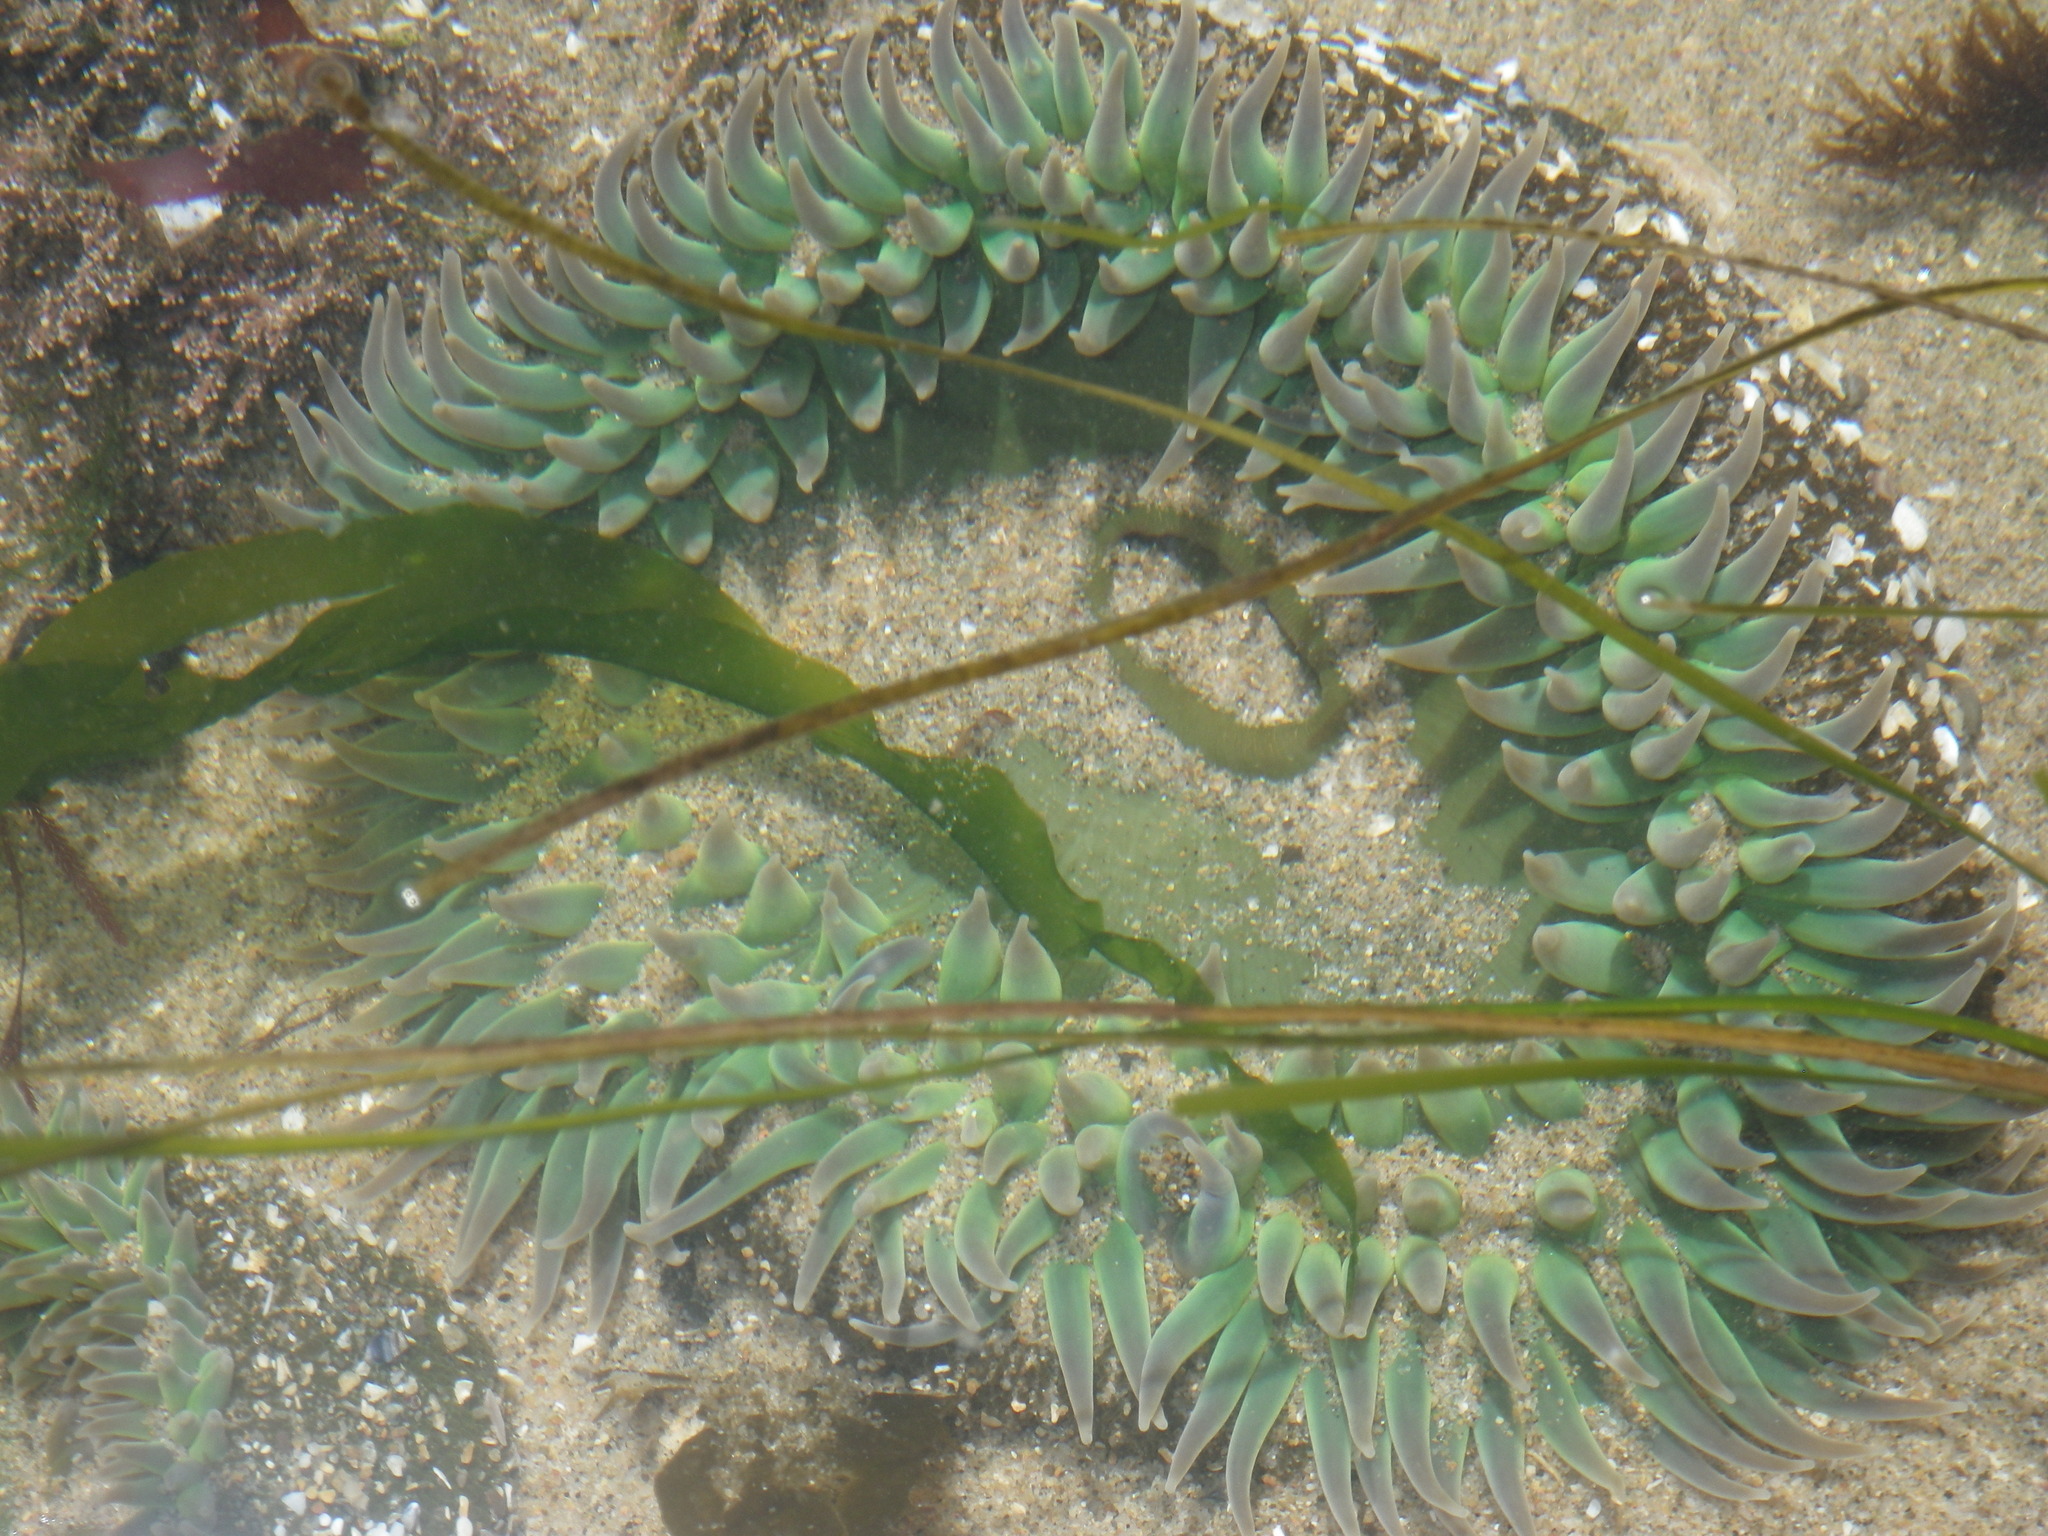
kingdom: Animalia
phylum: Cnidaria
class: Anthozoa
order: Actiniaria
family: Actiniidae
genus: Anthopleura
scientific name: Anthopleura xanthogrammica
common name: Giant green anemone
